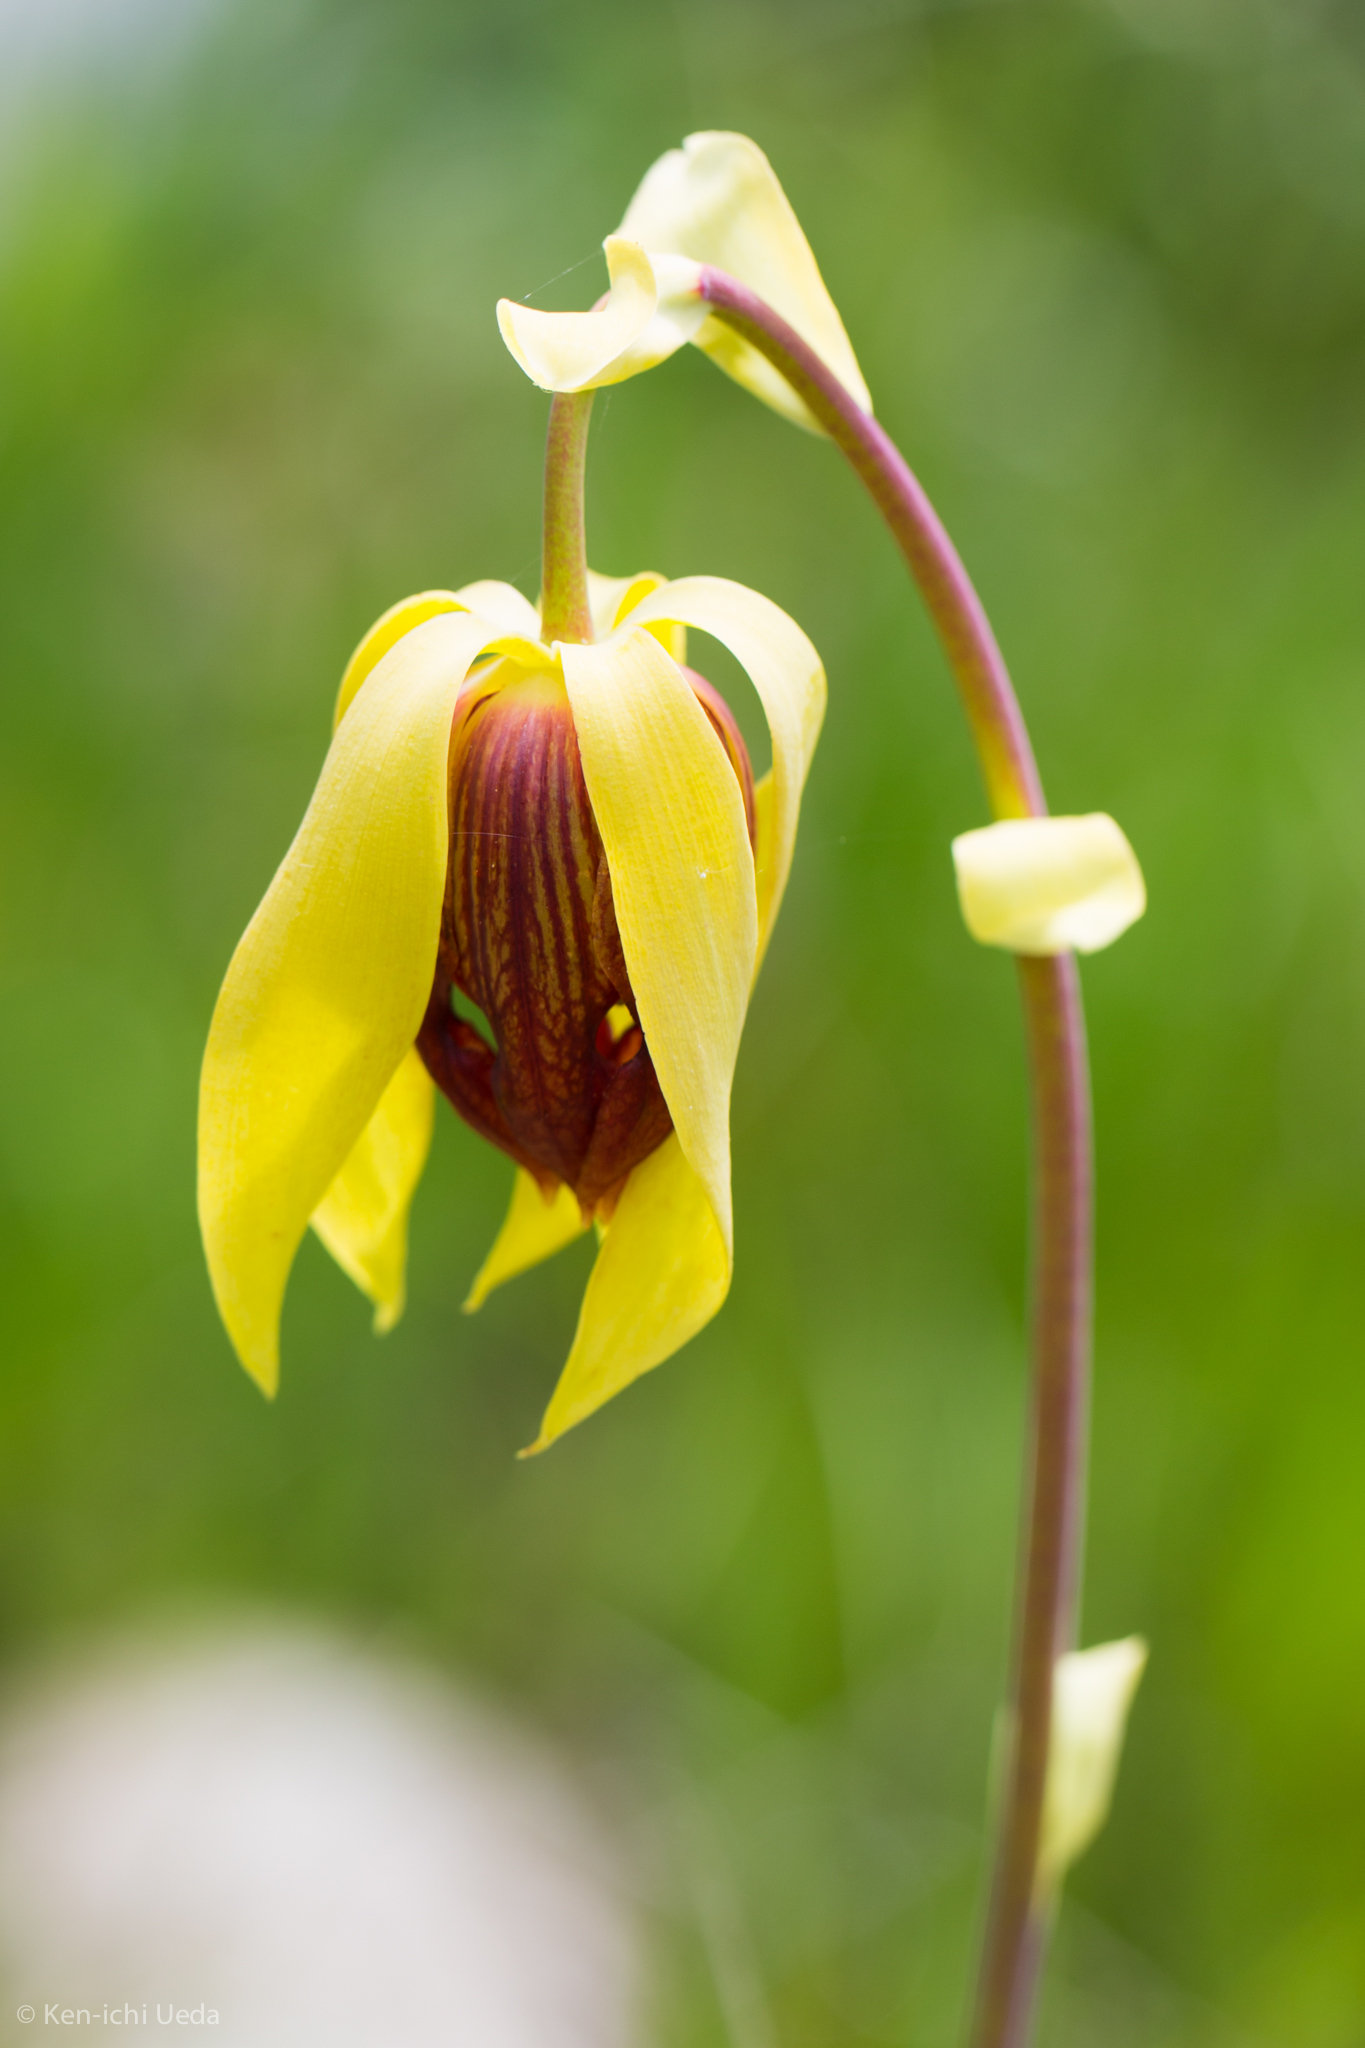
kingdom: Plantae
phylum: Tracheophyta
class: Magnoliopsida
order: Ericales
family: Sarraceniaceae
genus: Darlingtonia
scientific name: Darlingtonia californica
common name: California pitcher plant
